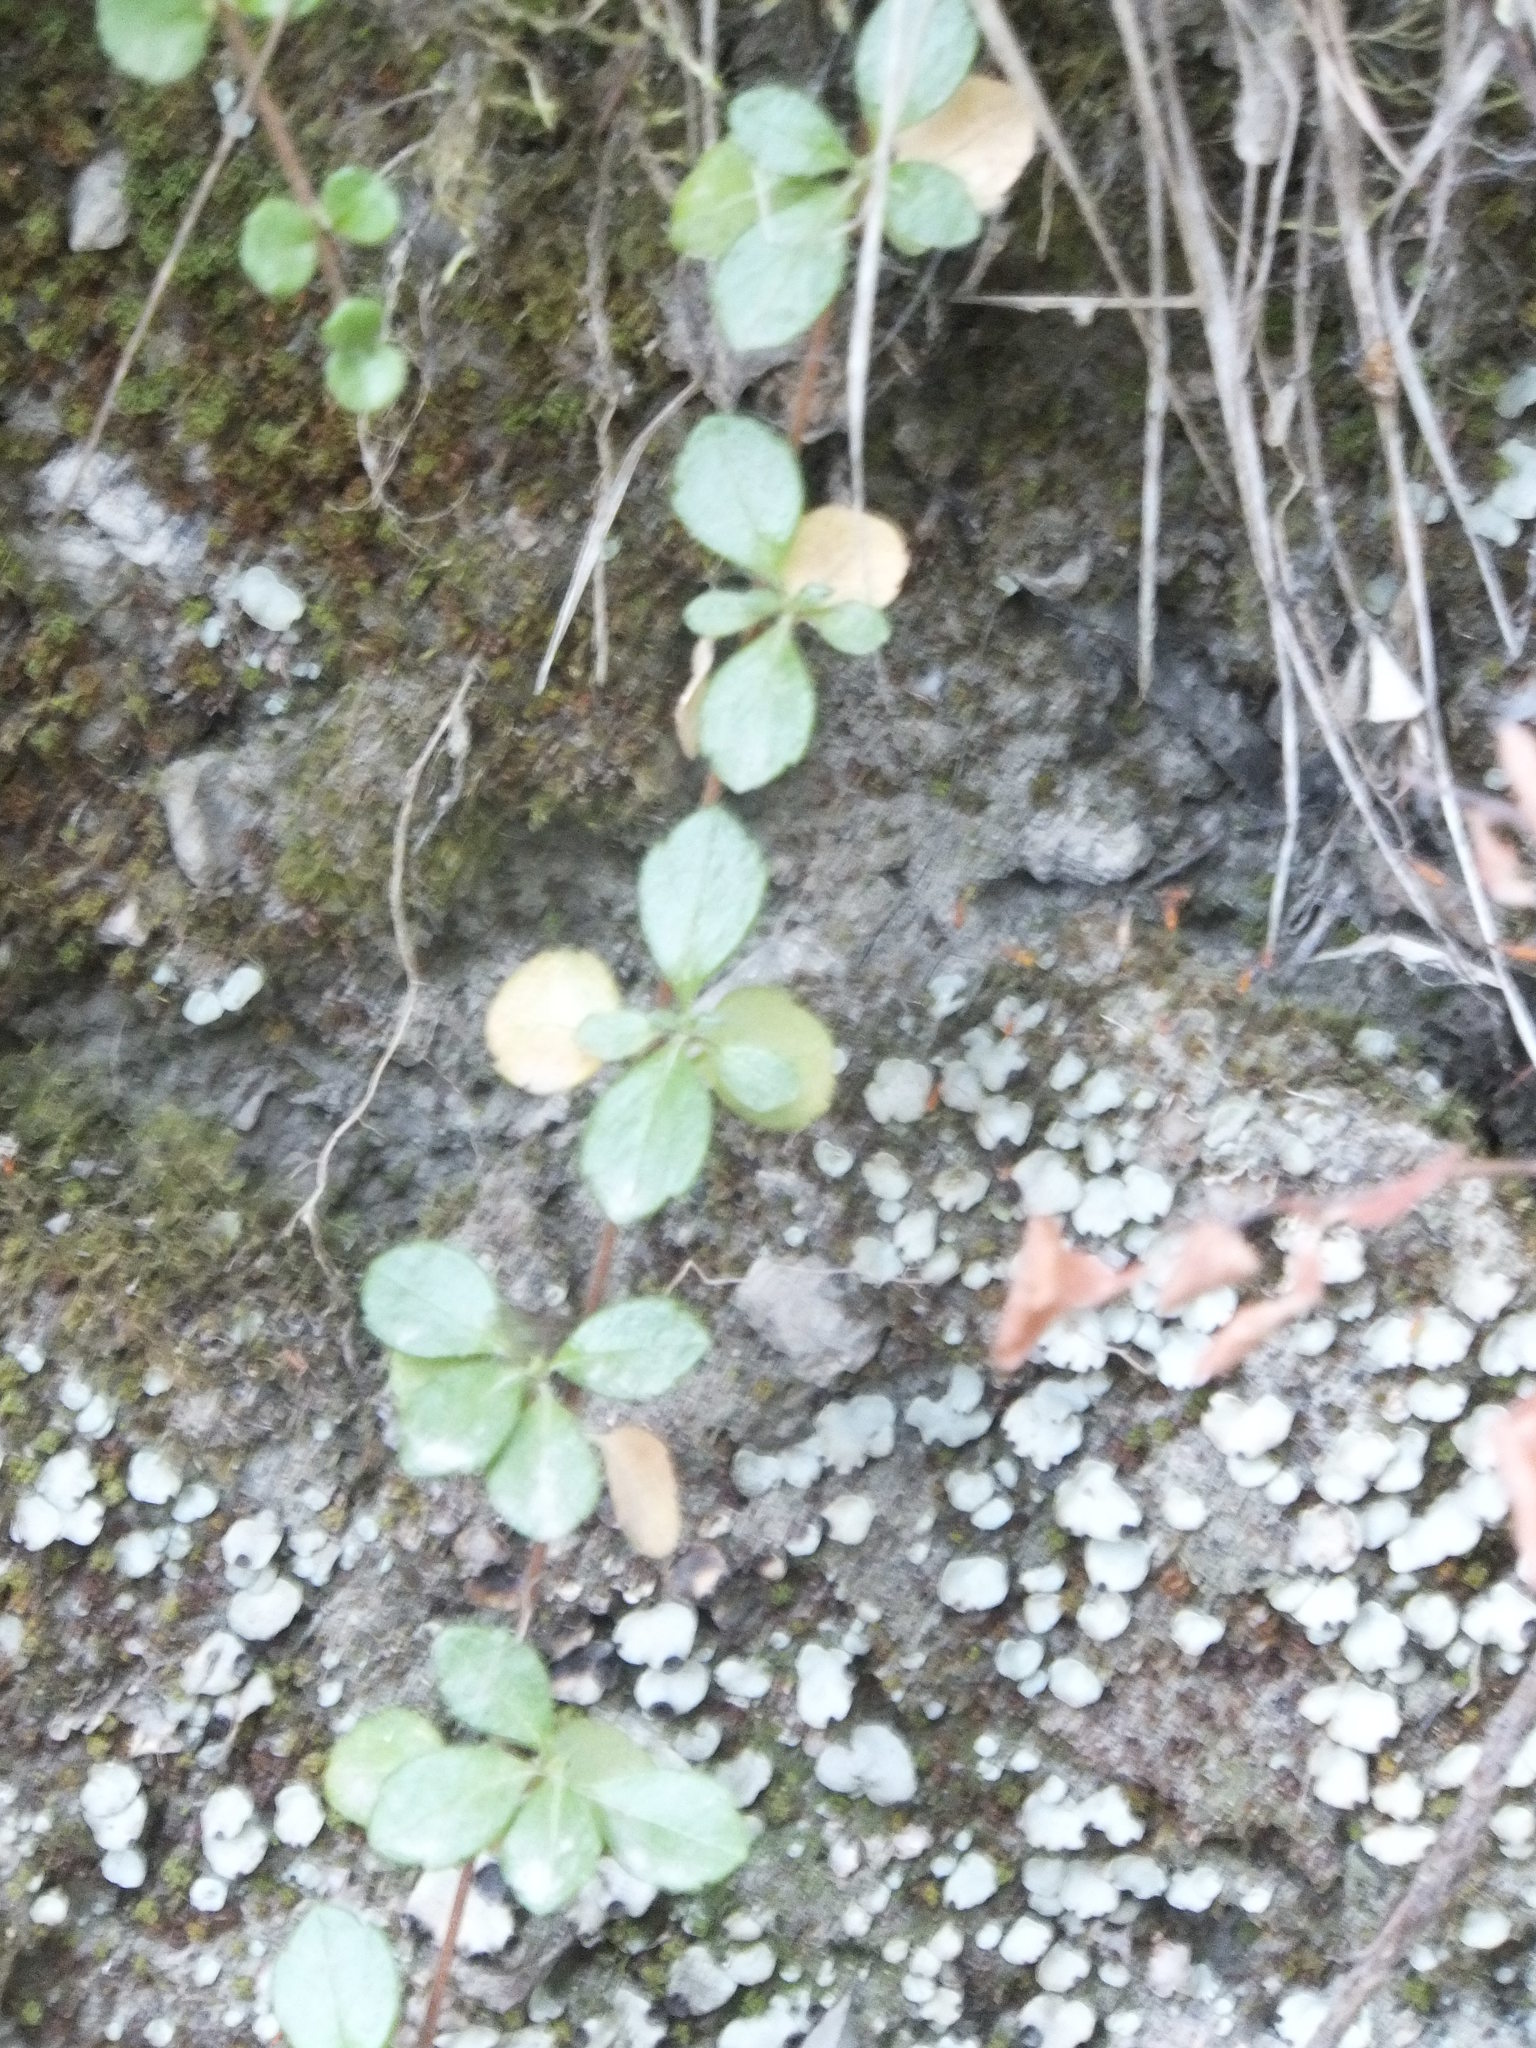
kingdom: Plantae
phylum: Tracheophyta
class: Magnoliopsida
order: Dipsacales
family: Caprifoliaceae
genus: Linnaea
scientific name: Linnaea borealis
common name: Twinflower
